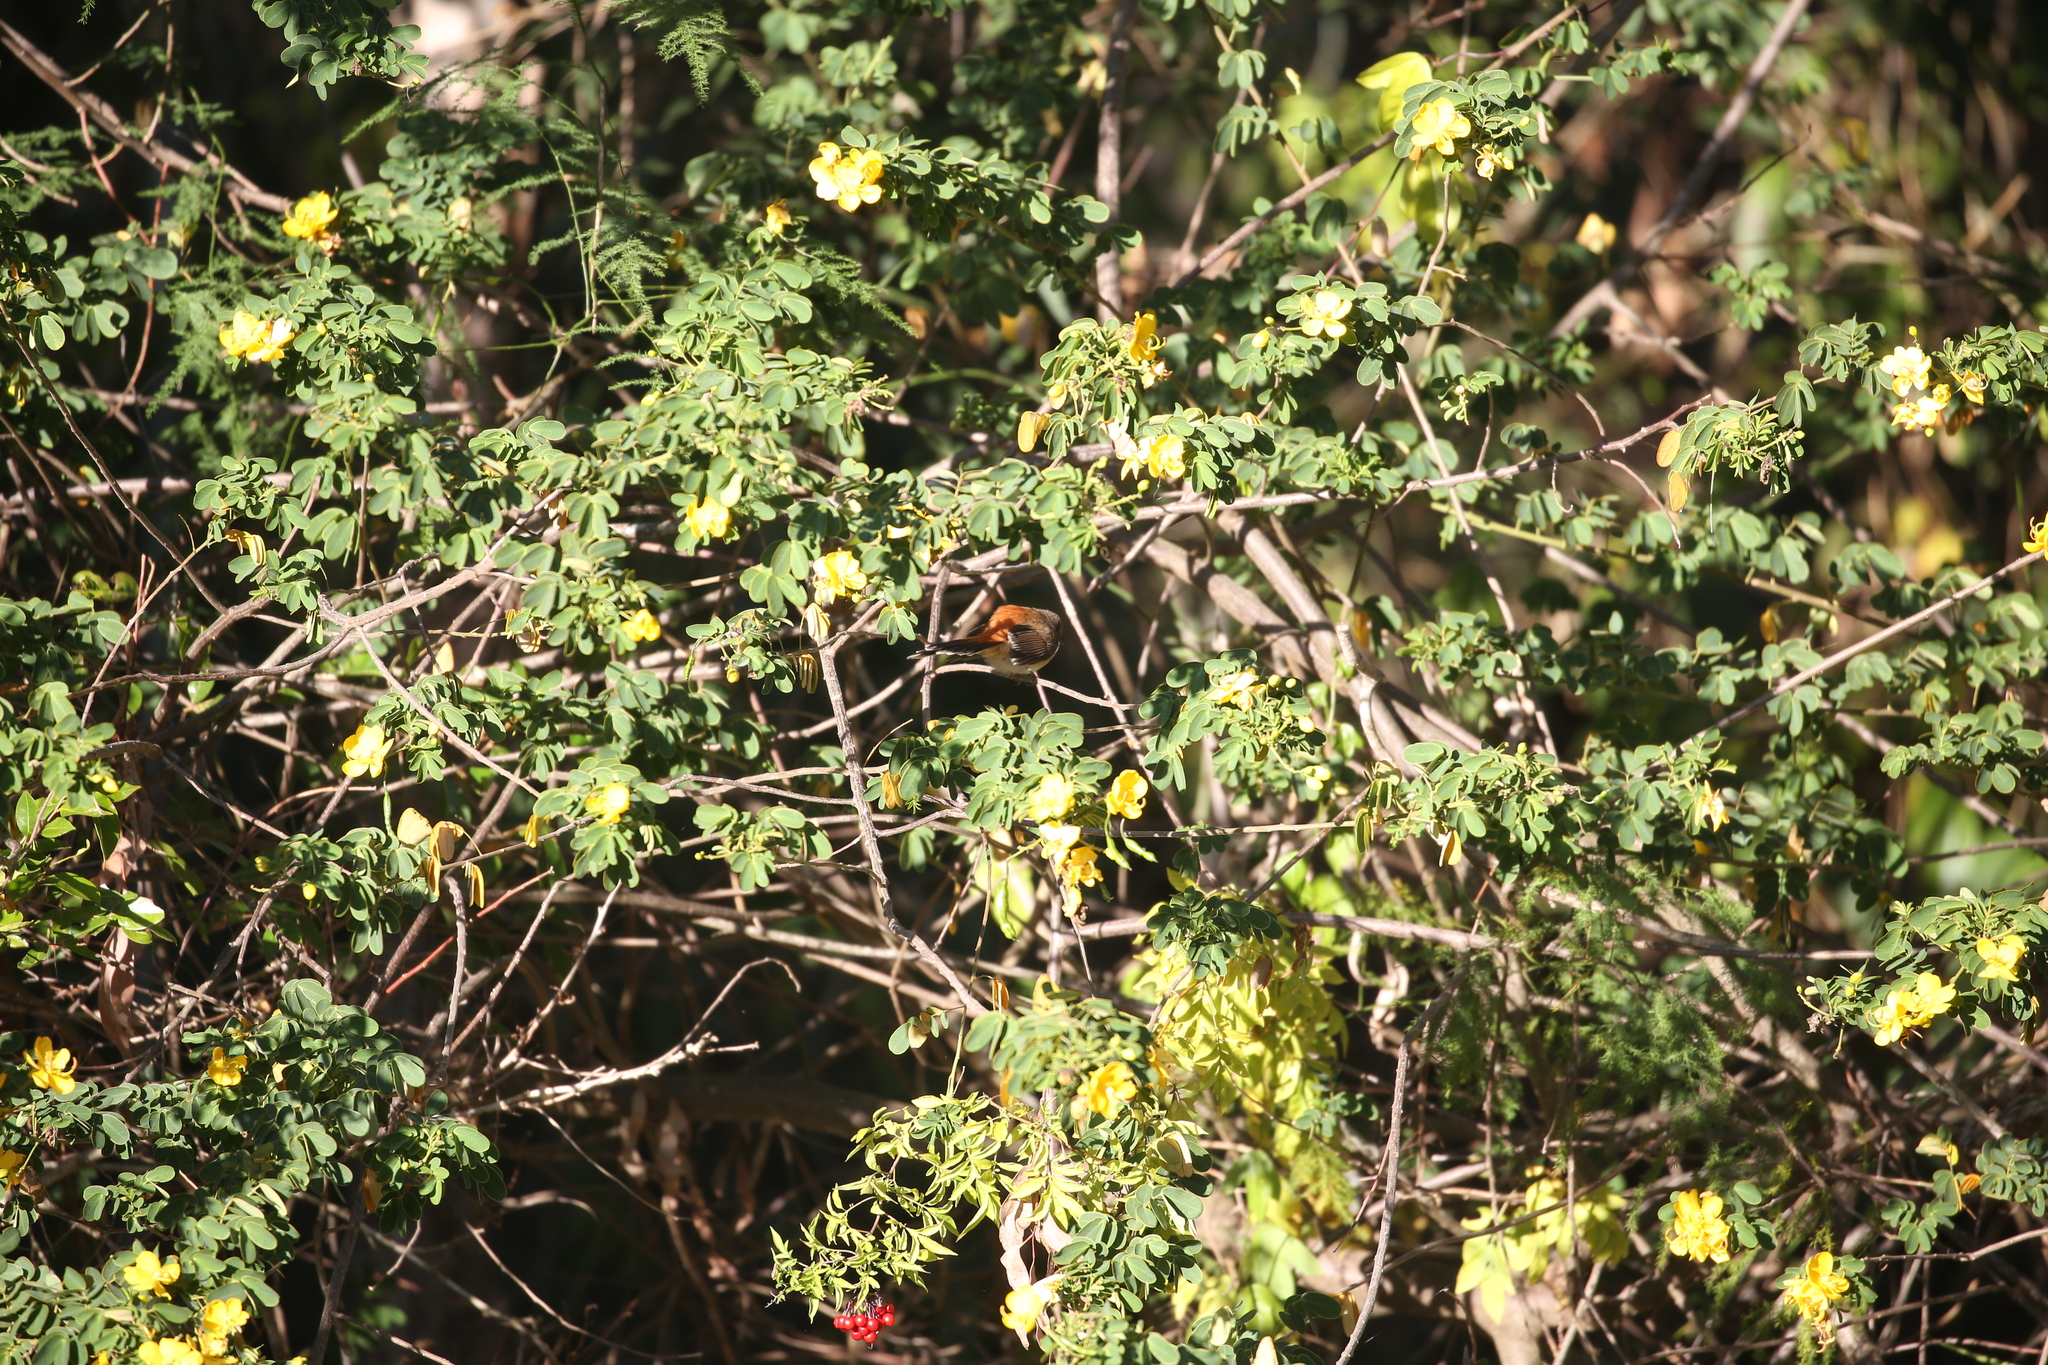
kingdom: Animalia
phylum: Chordata
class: Aves
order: Passeriformes
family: Rhipiduridae
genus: Rhipidura
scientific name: Rhipidura rufifrons
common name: Rufous fantail
